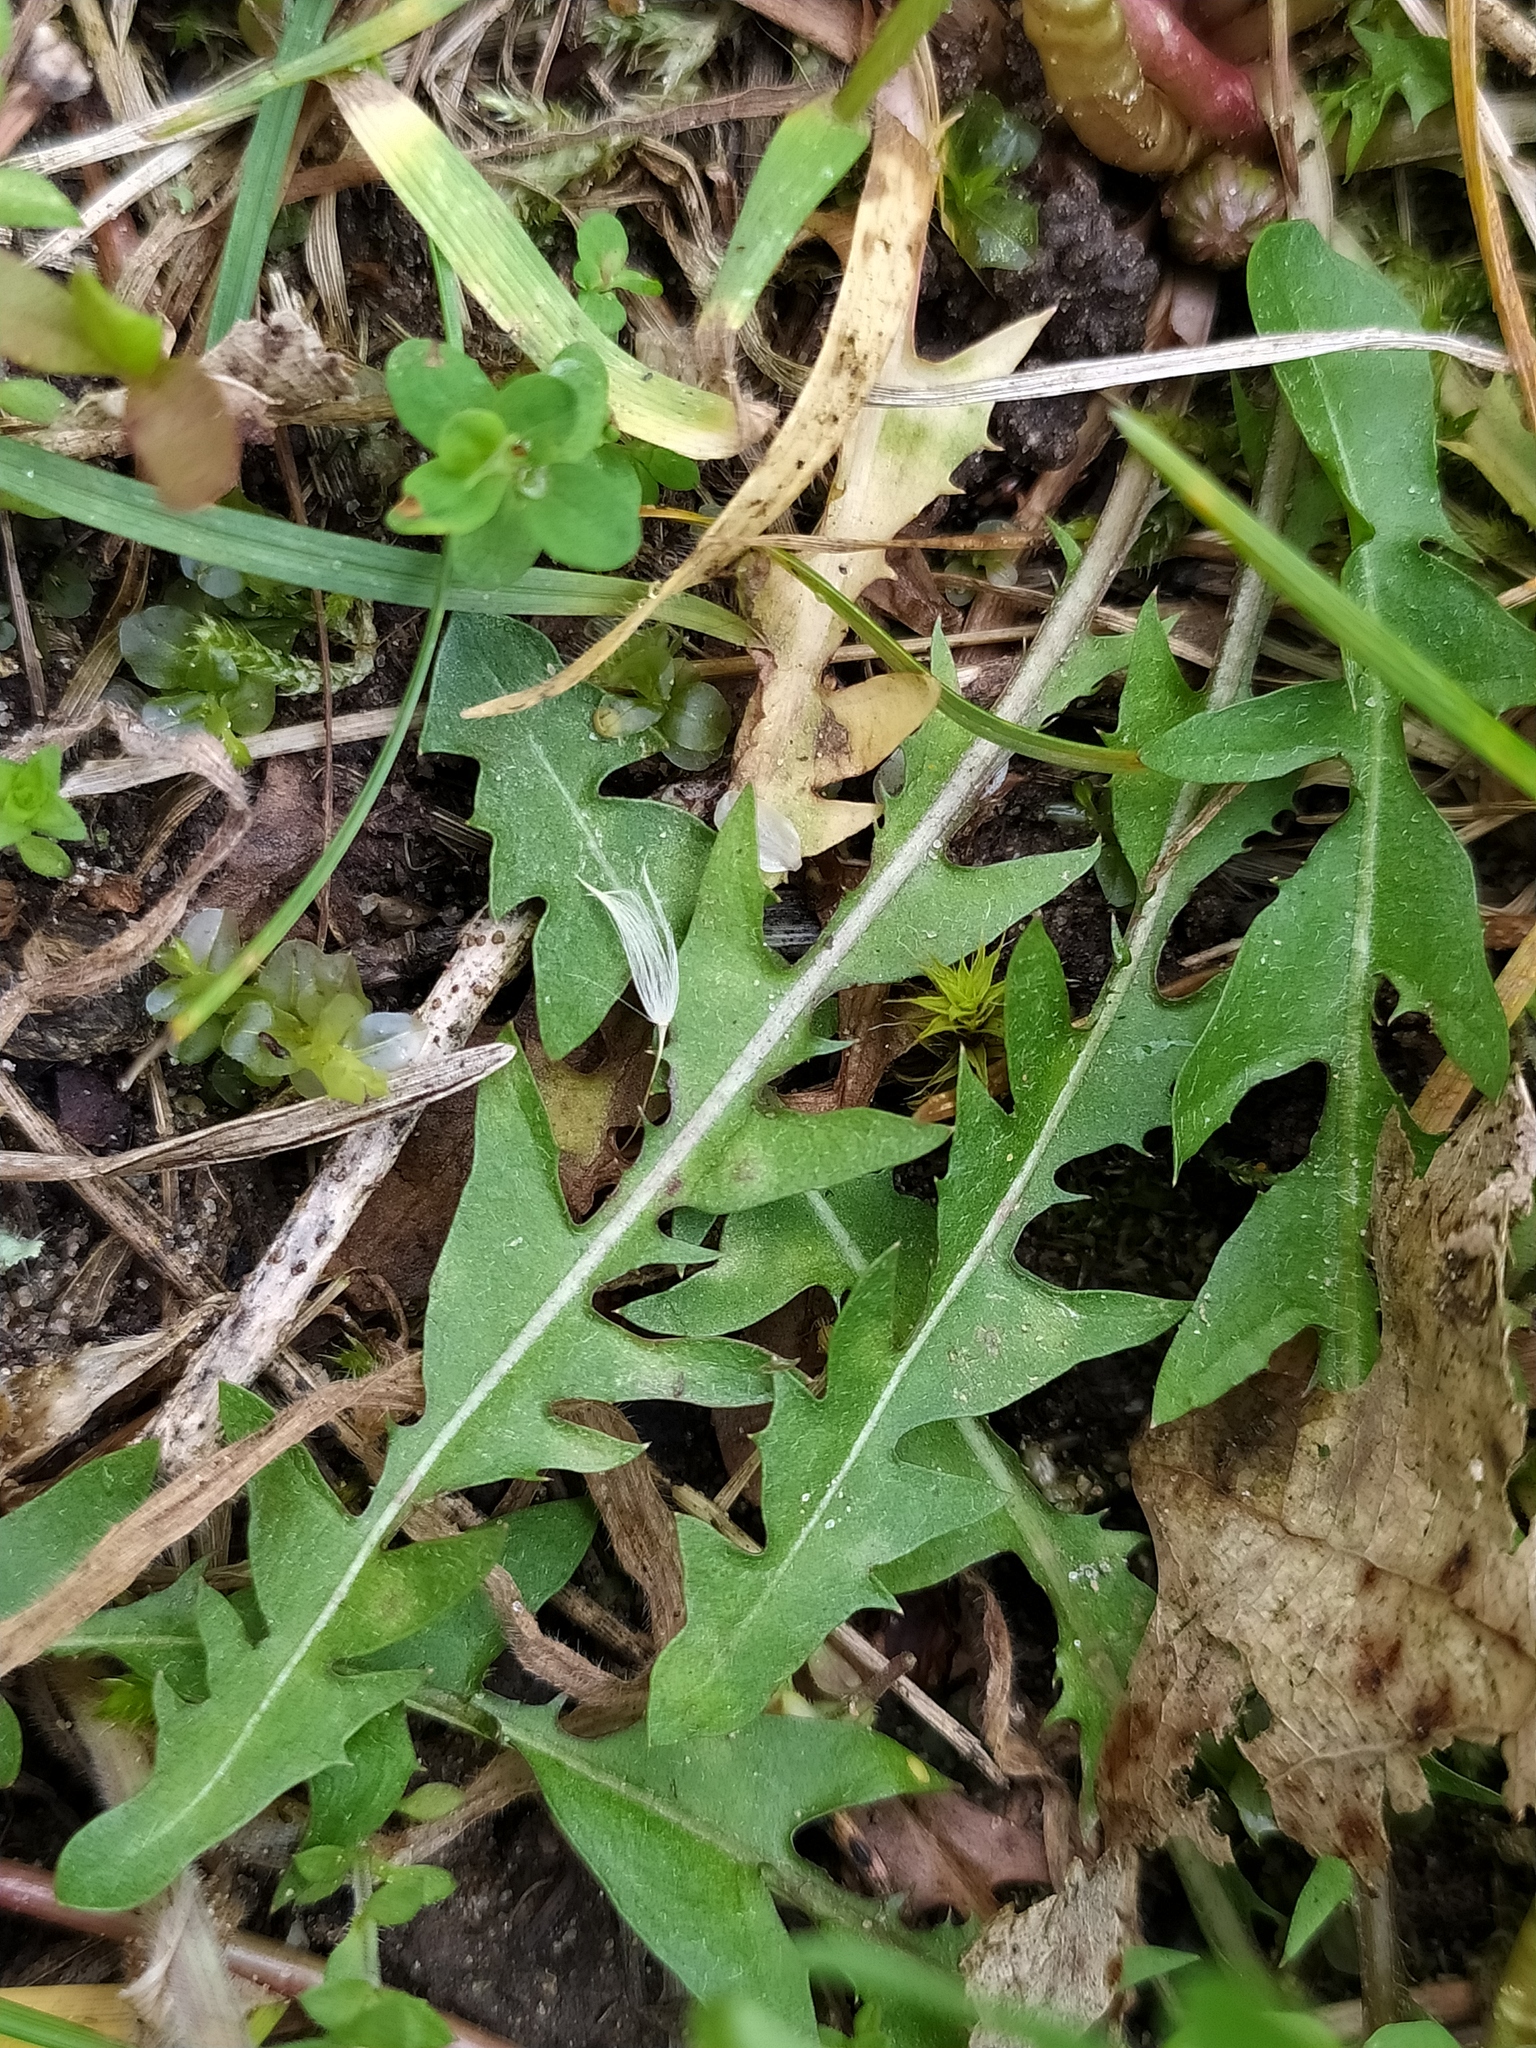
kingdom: Plantae
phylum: Tracheophyta
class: Magnoliopsida
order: Asterales
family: Asteraceae
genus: Taraxacum
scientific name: Taraxacum bellicum
